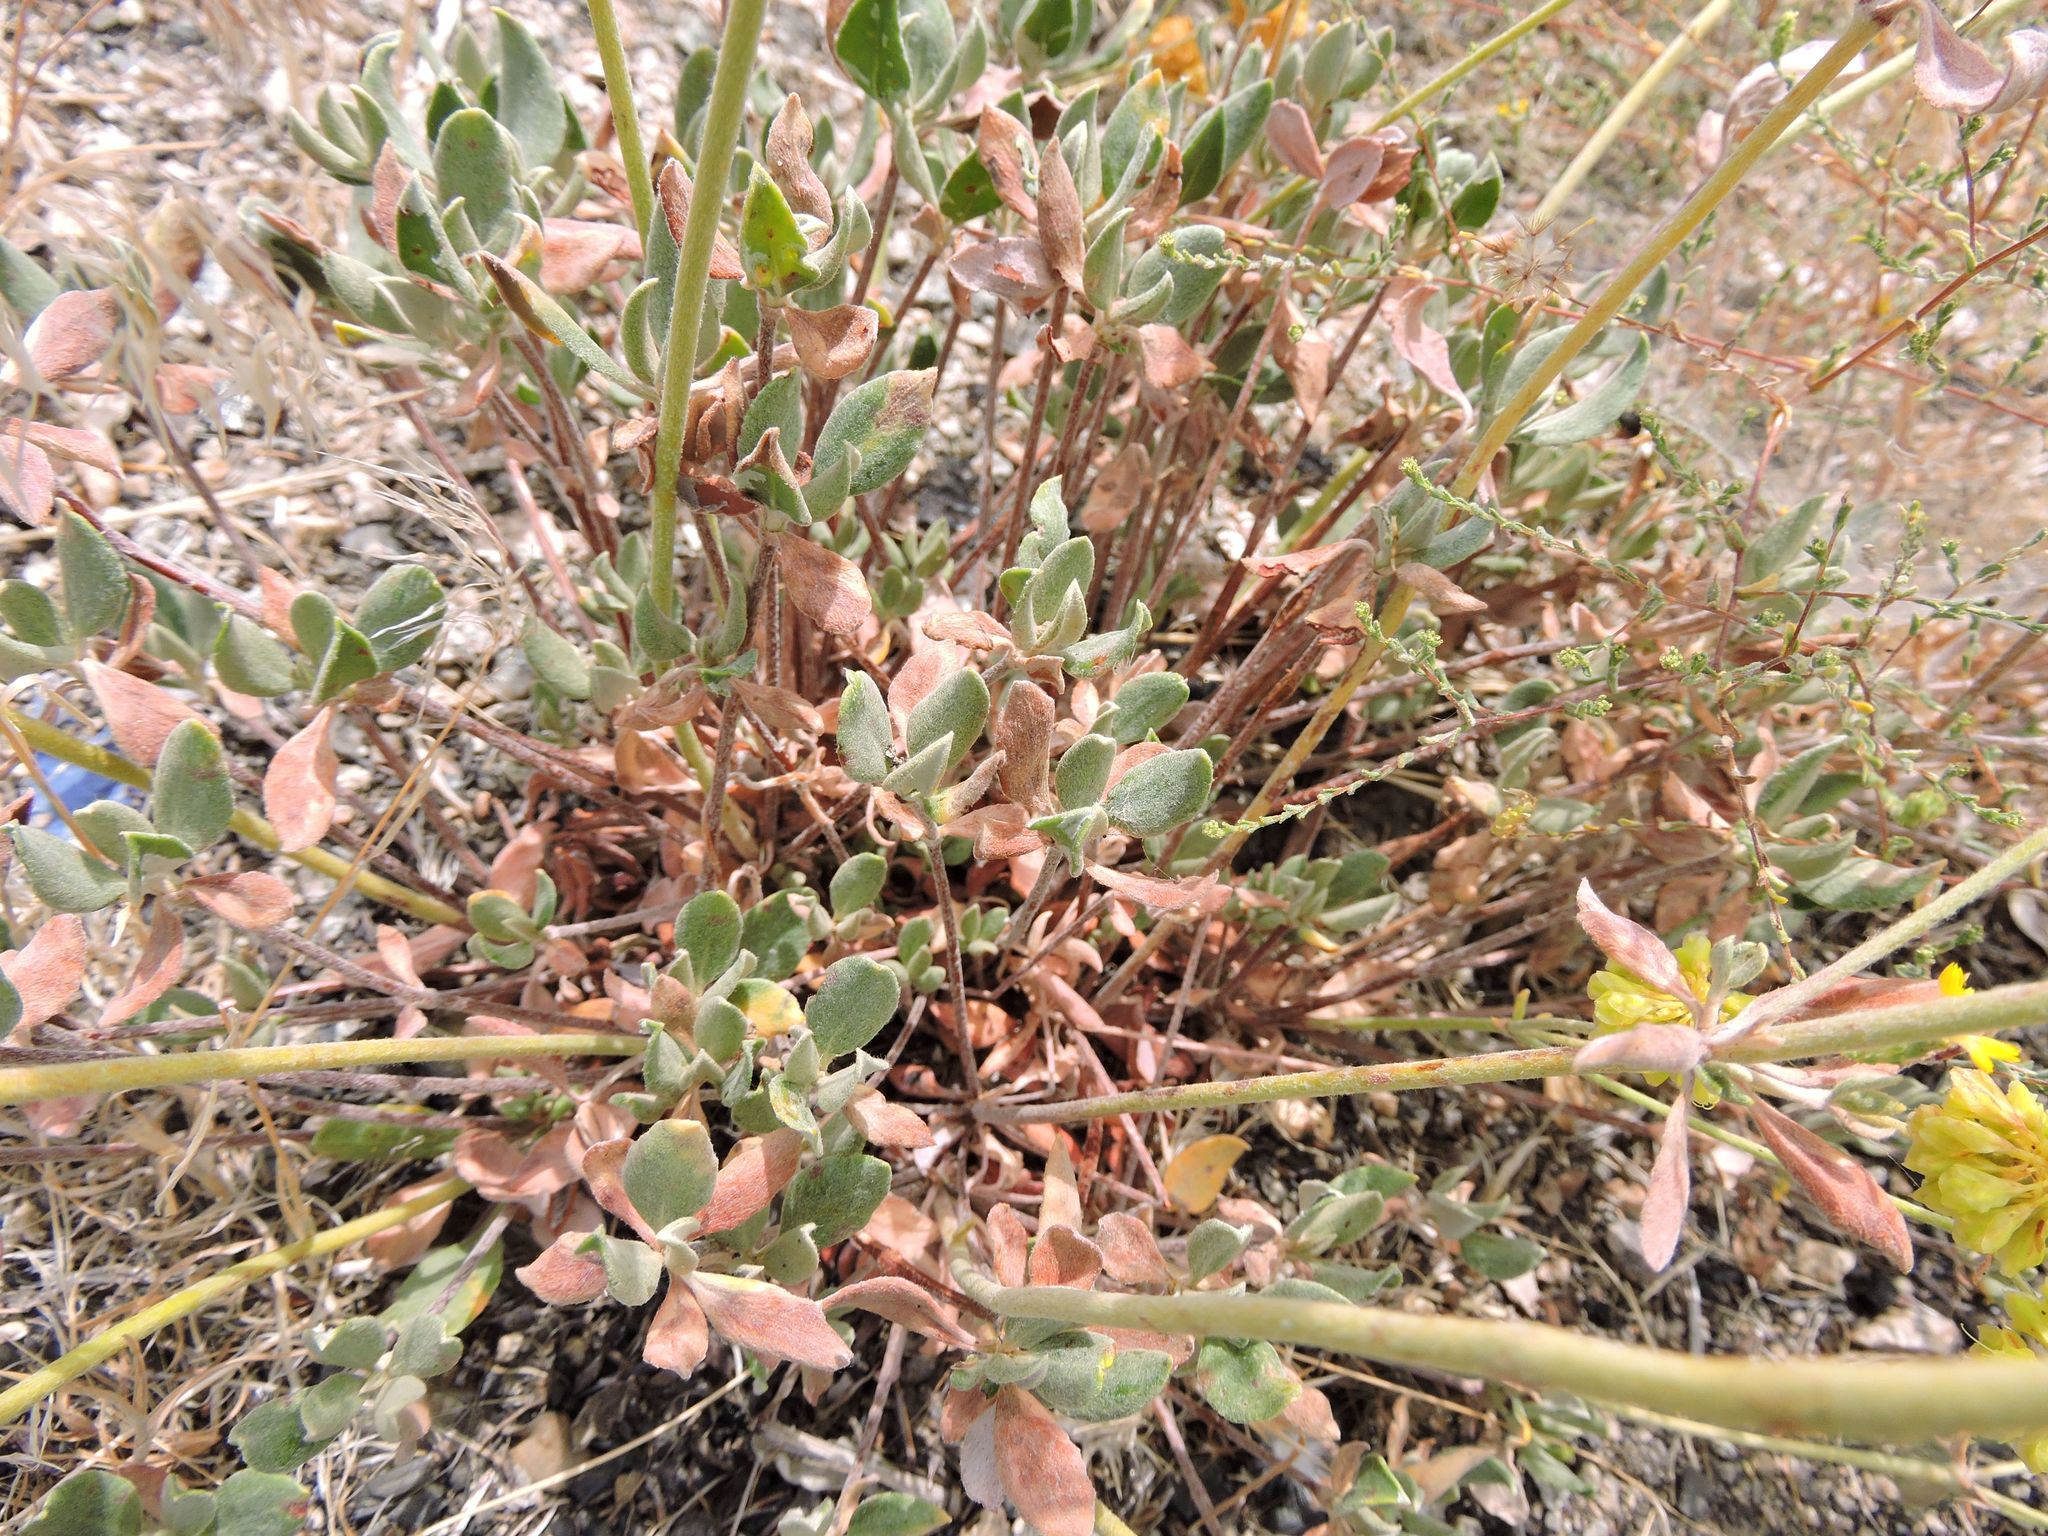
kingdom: Plantae
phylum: Tracheophyta
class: Magnoliopsida
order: Caryophyllales
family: Polygonaceae
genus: Eriogonum
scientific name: Eriogonum umbellatum
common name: Sulfur-buckwheat
